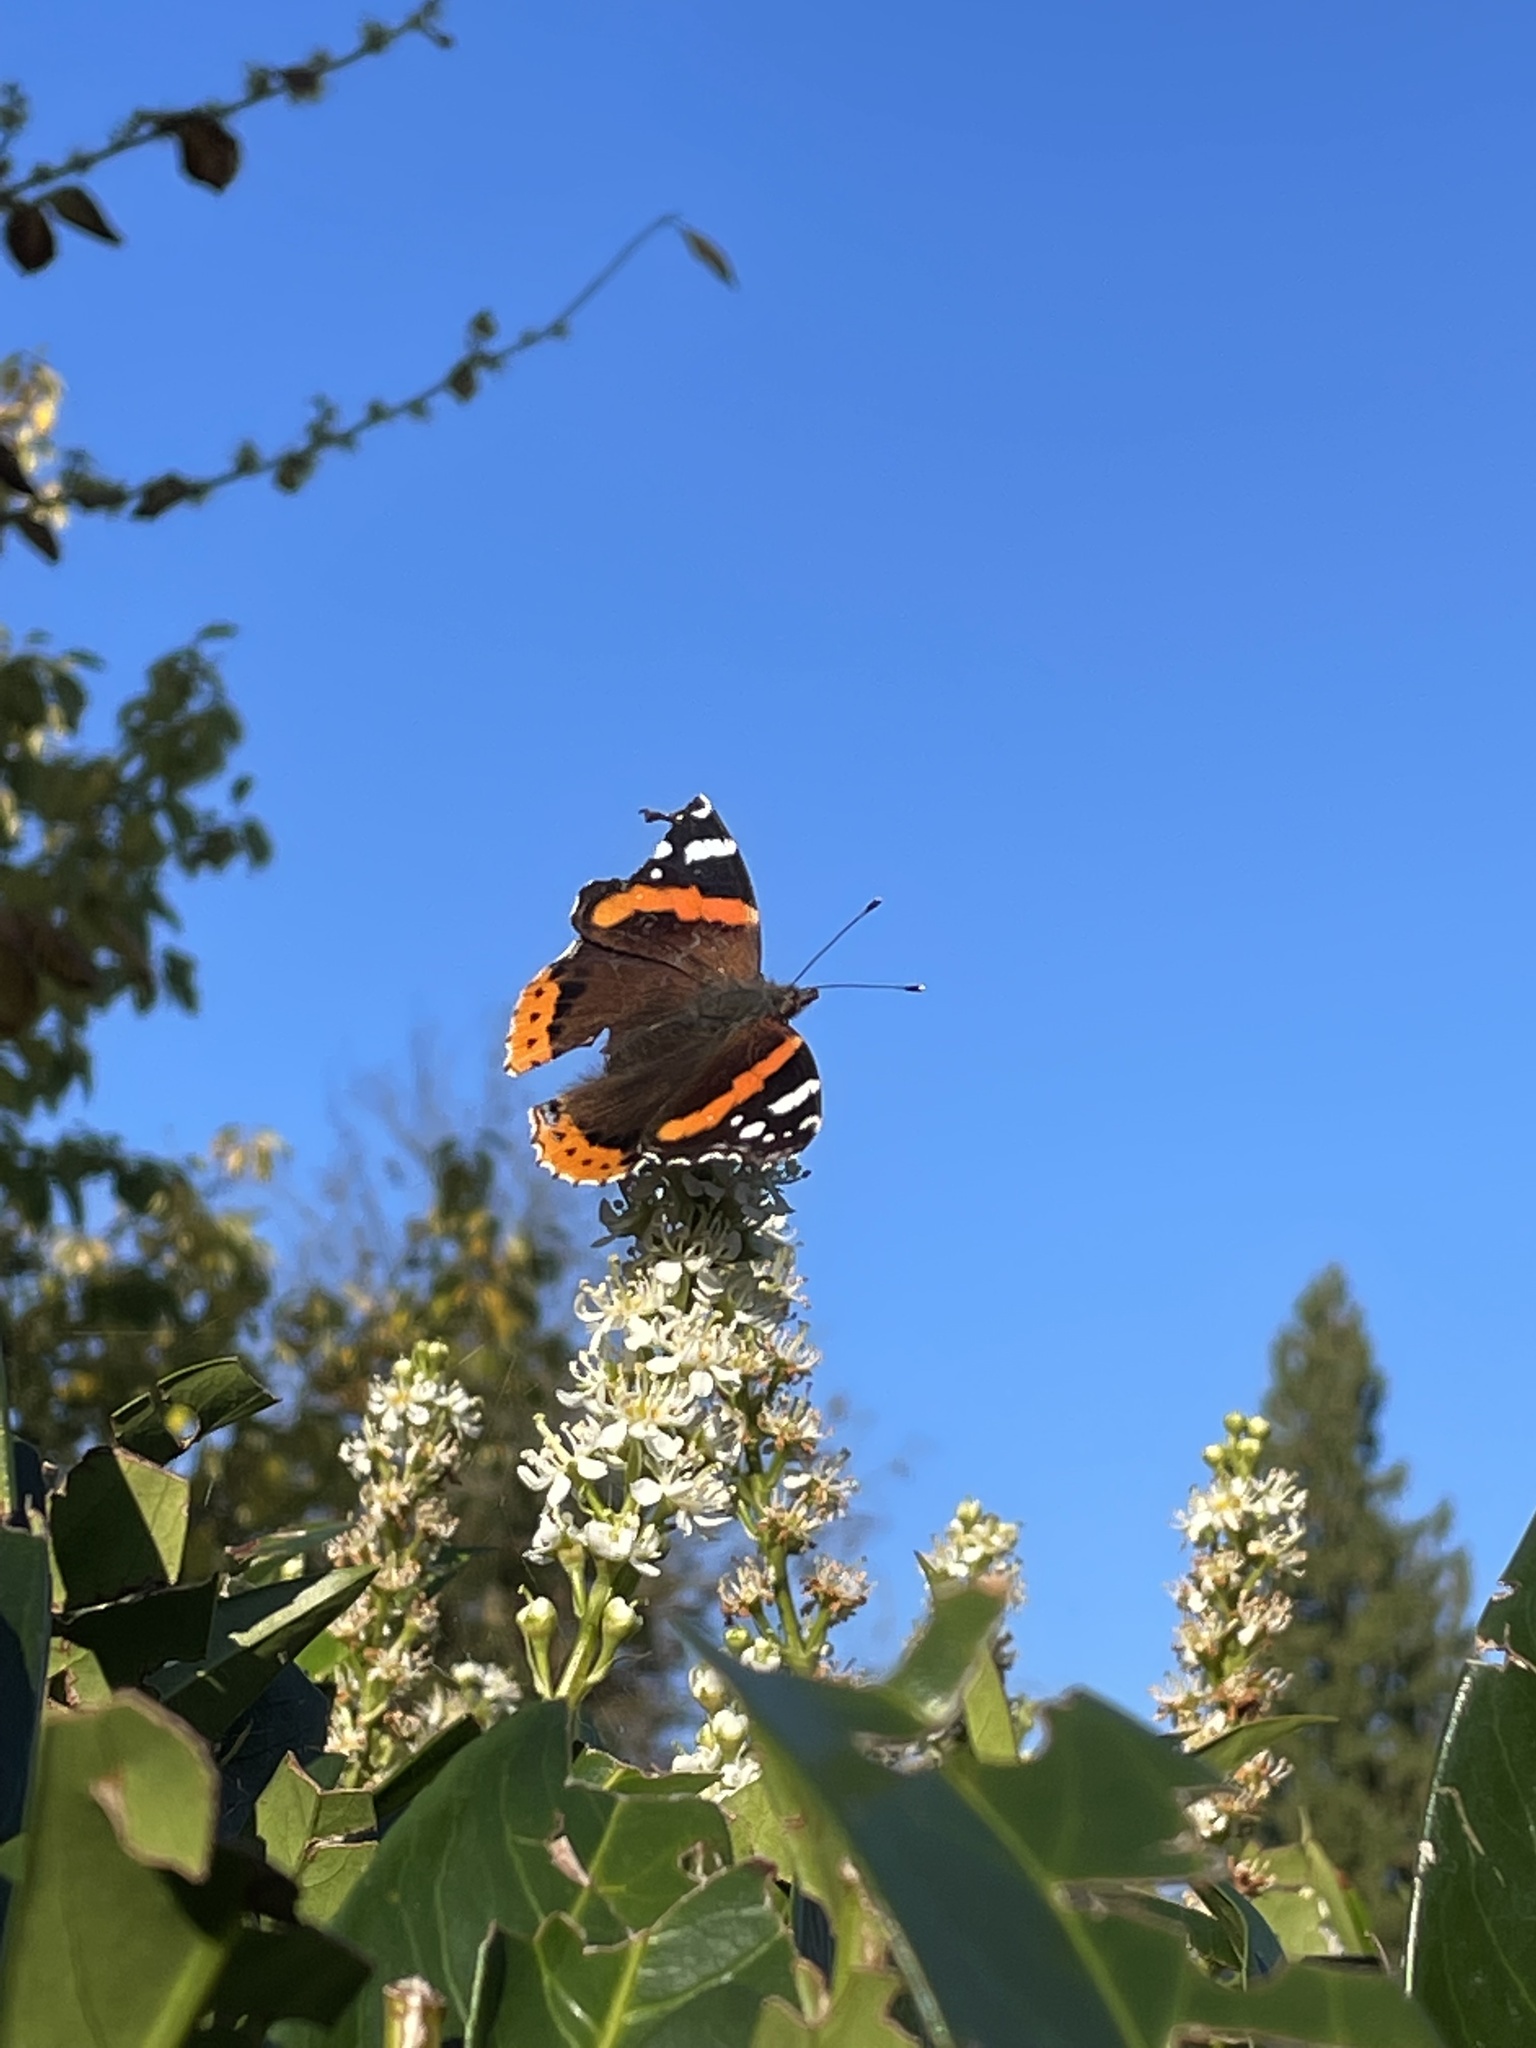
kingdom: Animalia
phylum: Arthropoda
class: Insecta
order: Lepidoptera
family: Nymphalidae
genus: Vanessa
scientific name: Vanessa atalanta
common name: Red admiral
